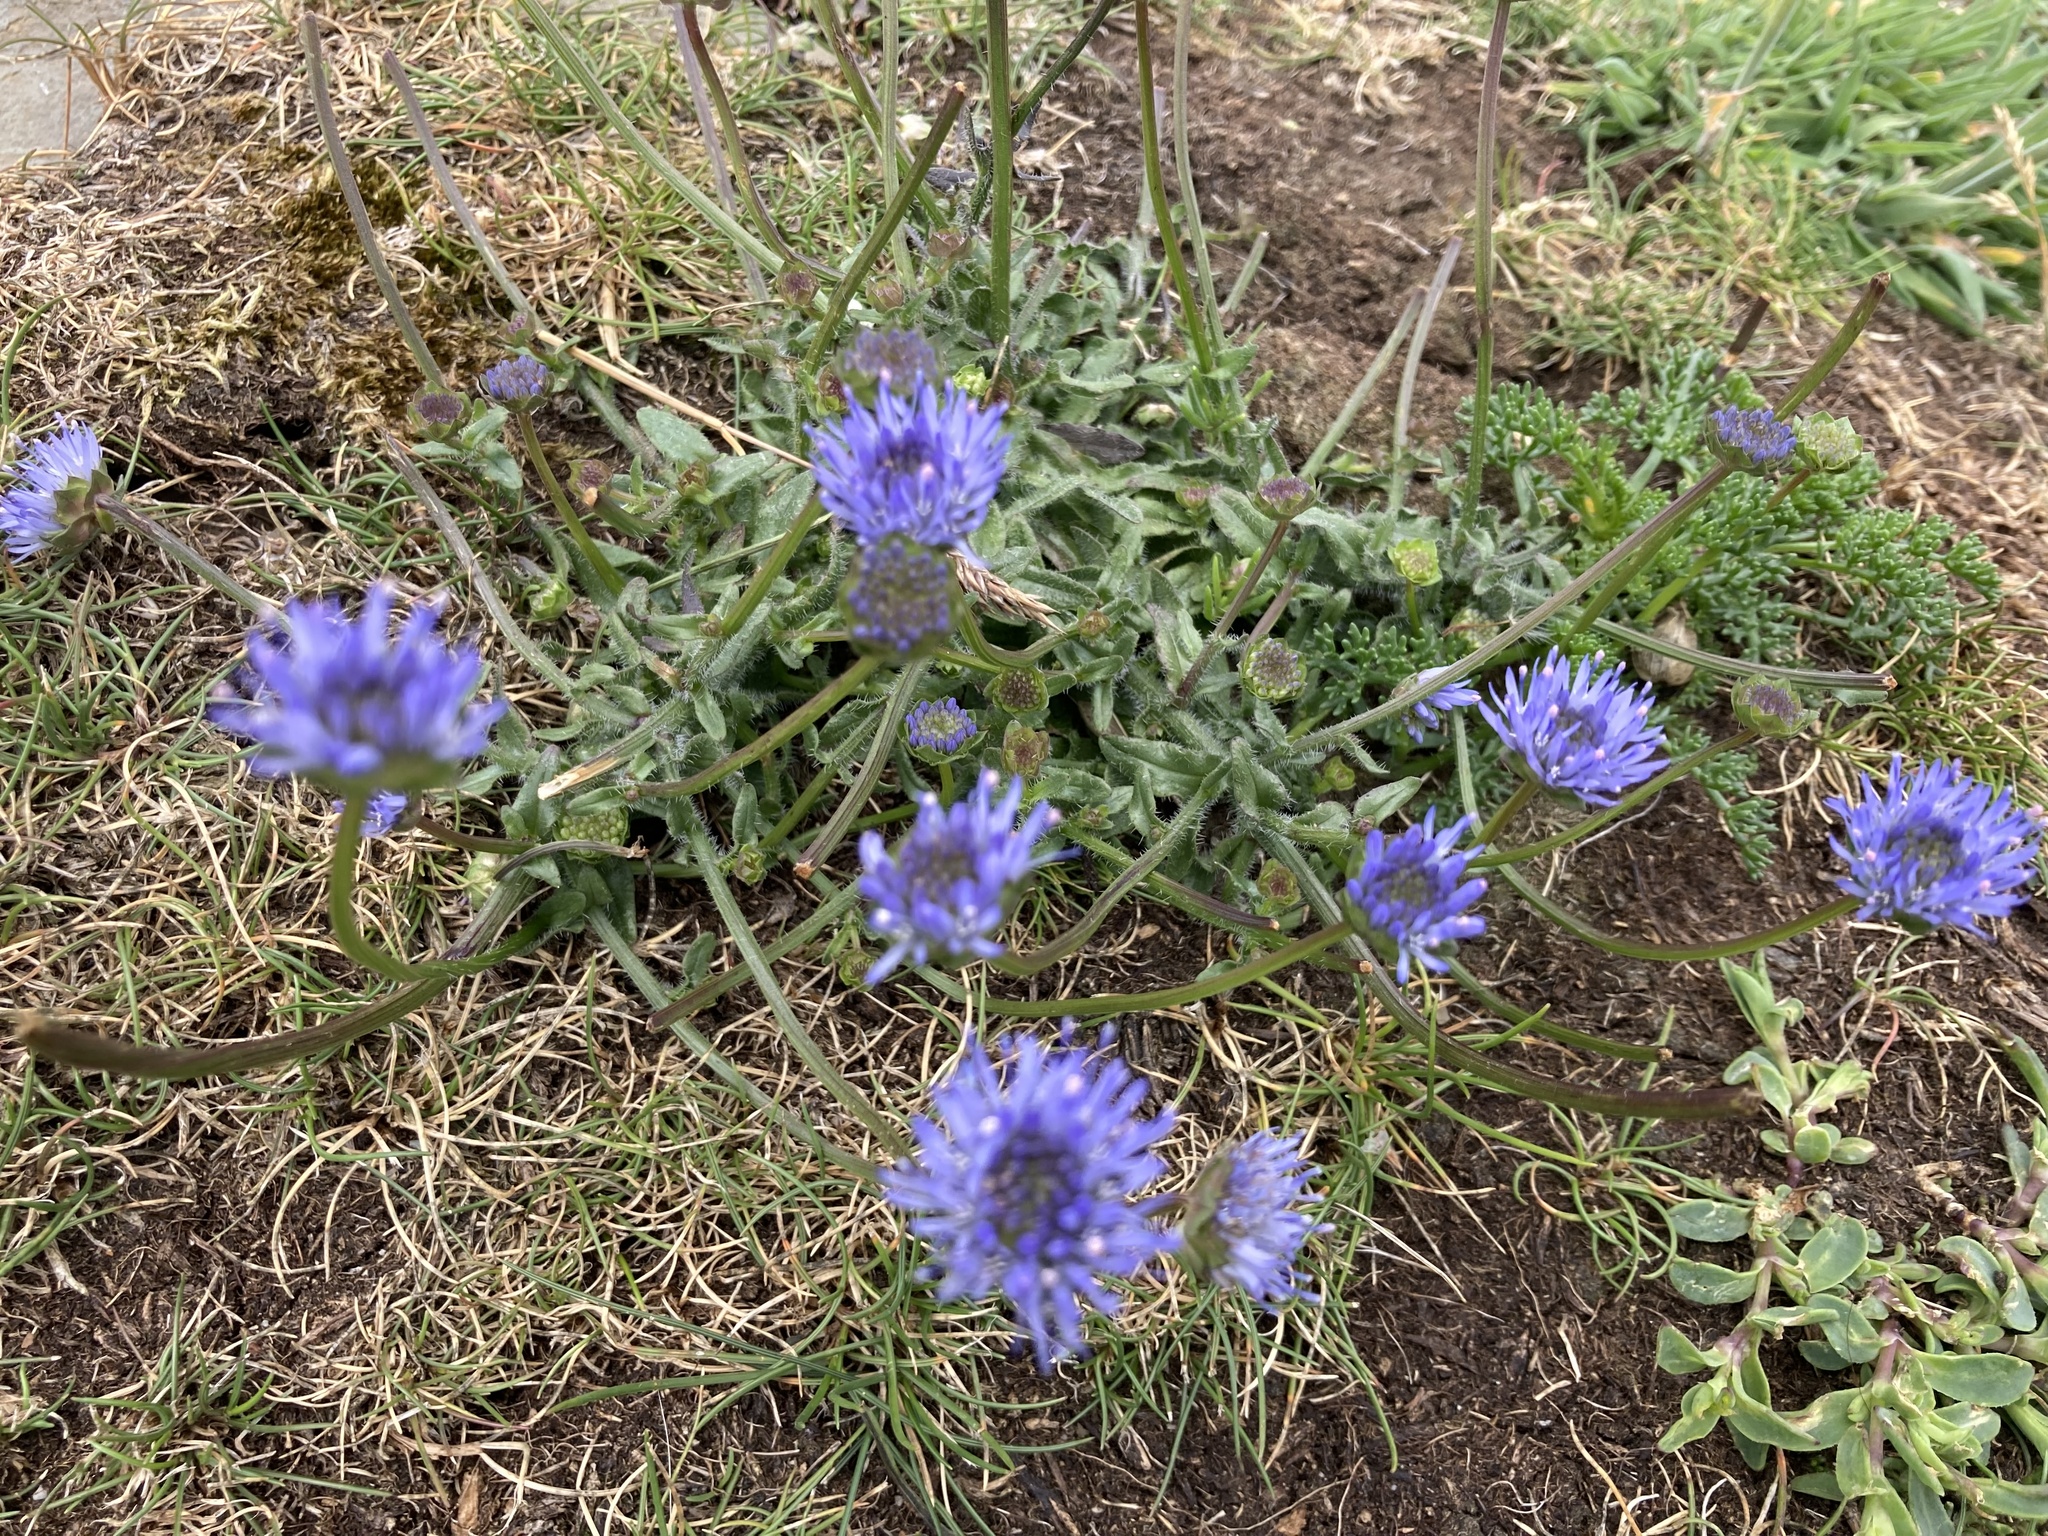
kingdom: Plantae
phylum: Tracheophyta
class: Magnoliopsida
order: Asterales
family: Campanulaceae
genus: Jasione
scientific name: Jasione montana
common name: Sheep's-bit
